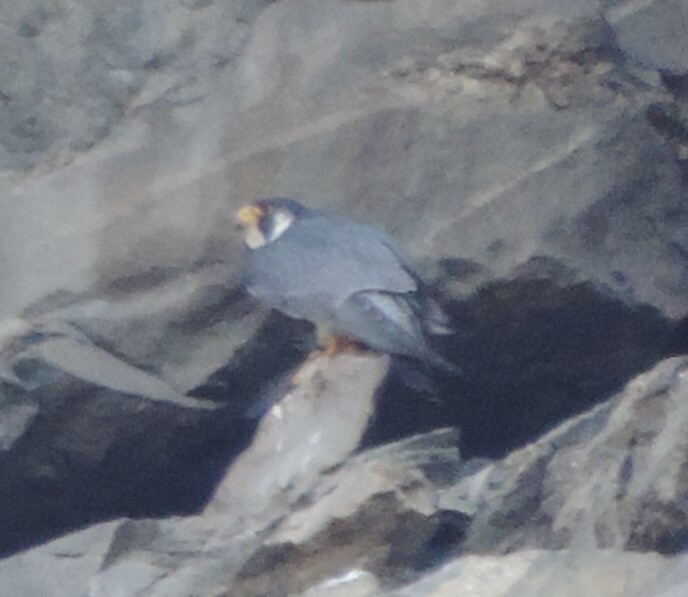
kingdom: Animalia
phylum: Chordata
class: Aves
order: Falconiformes
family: Falconidae
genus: Falco
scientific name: Falco peregrinus
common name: Peregrine falcon
